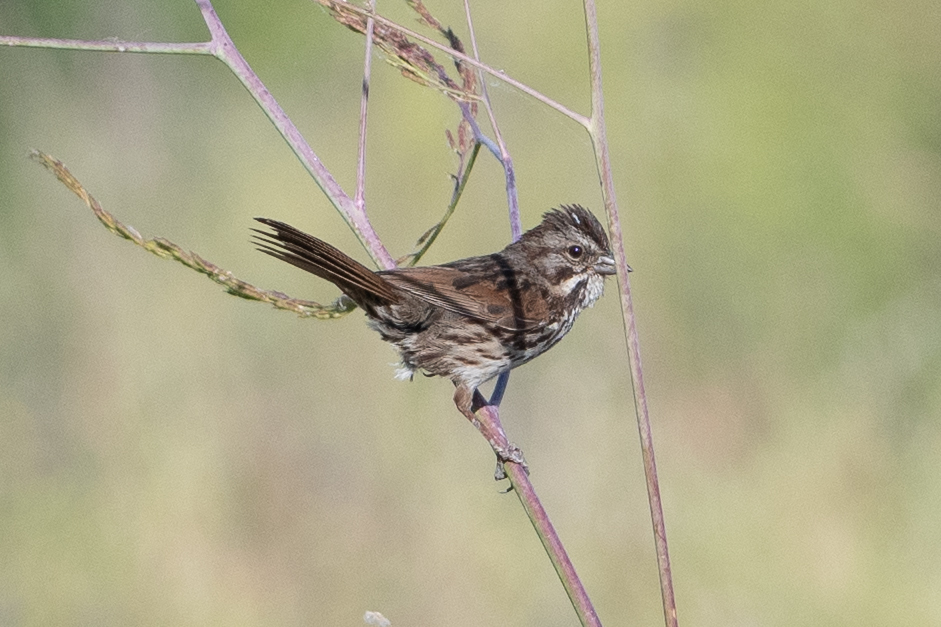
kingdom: Animalia
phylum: Chordata
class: Aves
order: Passeriformes
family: Passerellidae
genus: Melospiza
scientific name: Melospiza melodia
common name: Song sparrow
